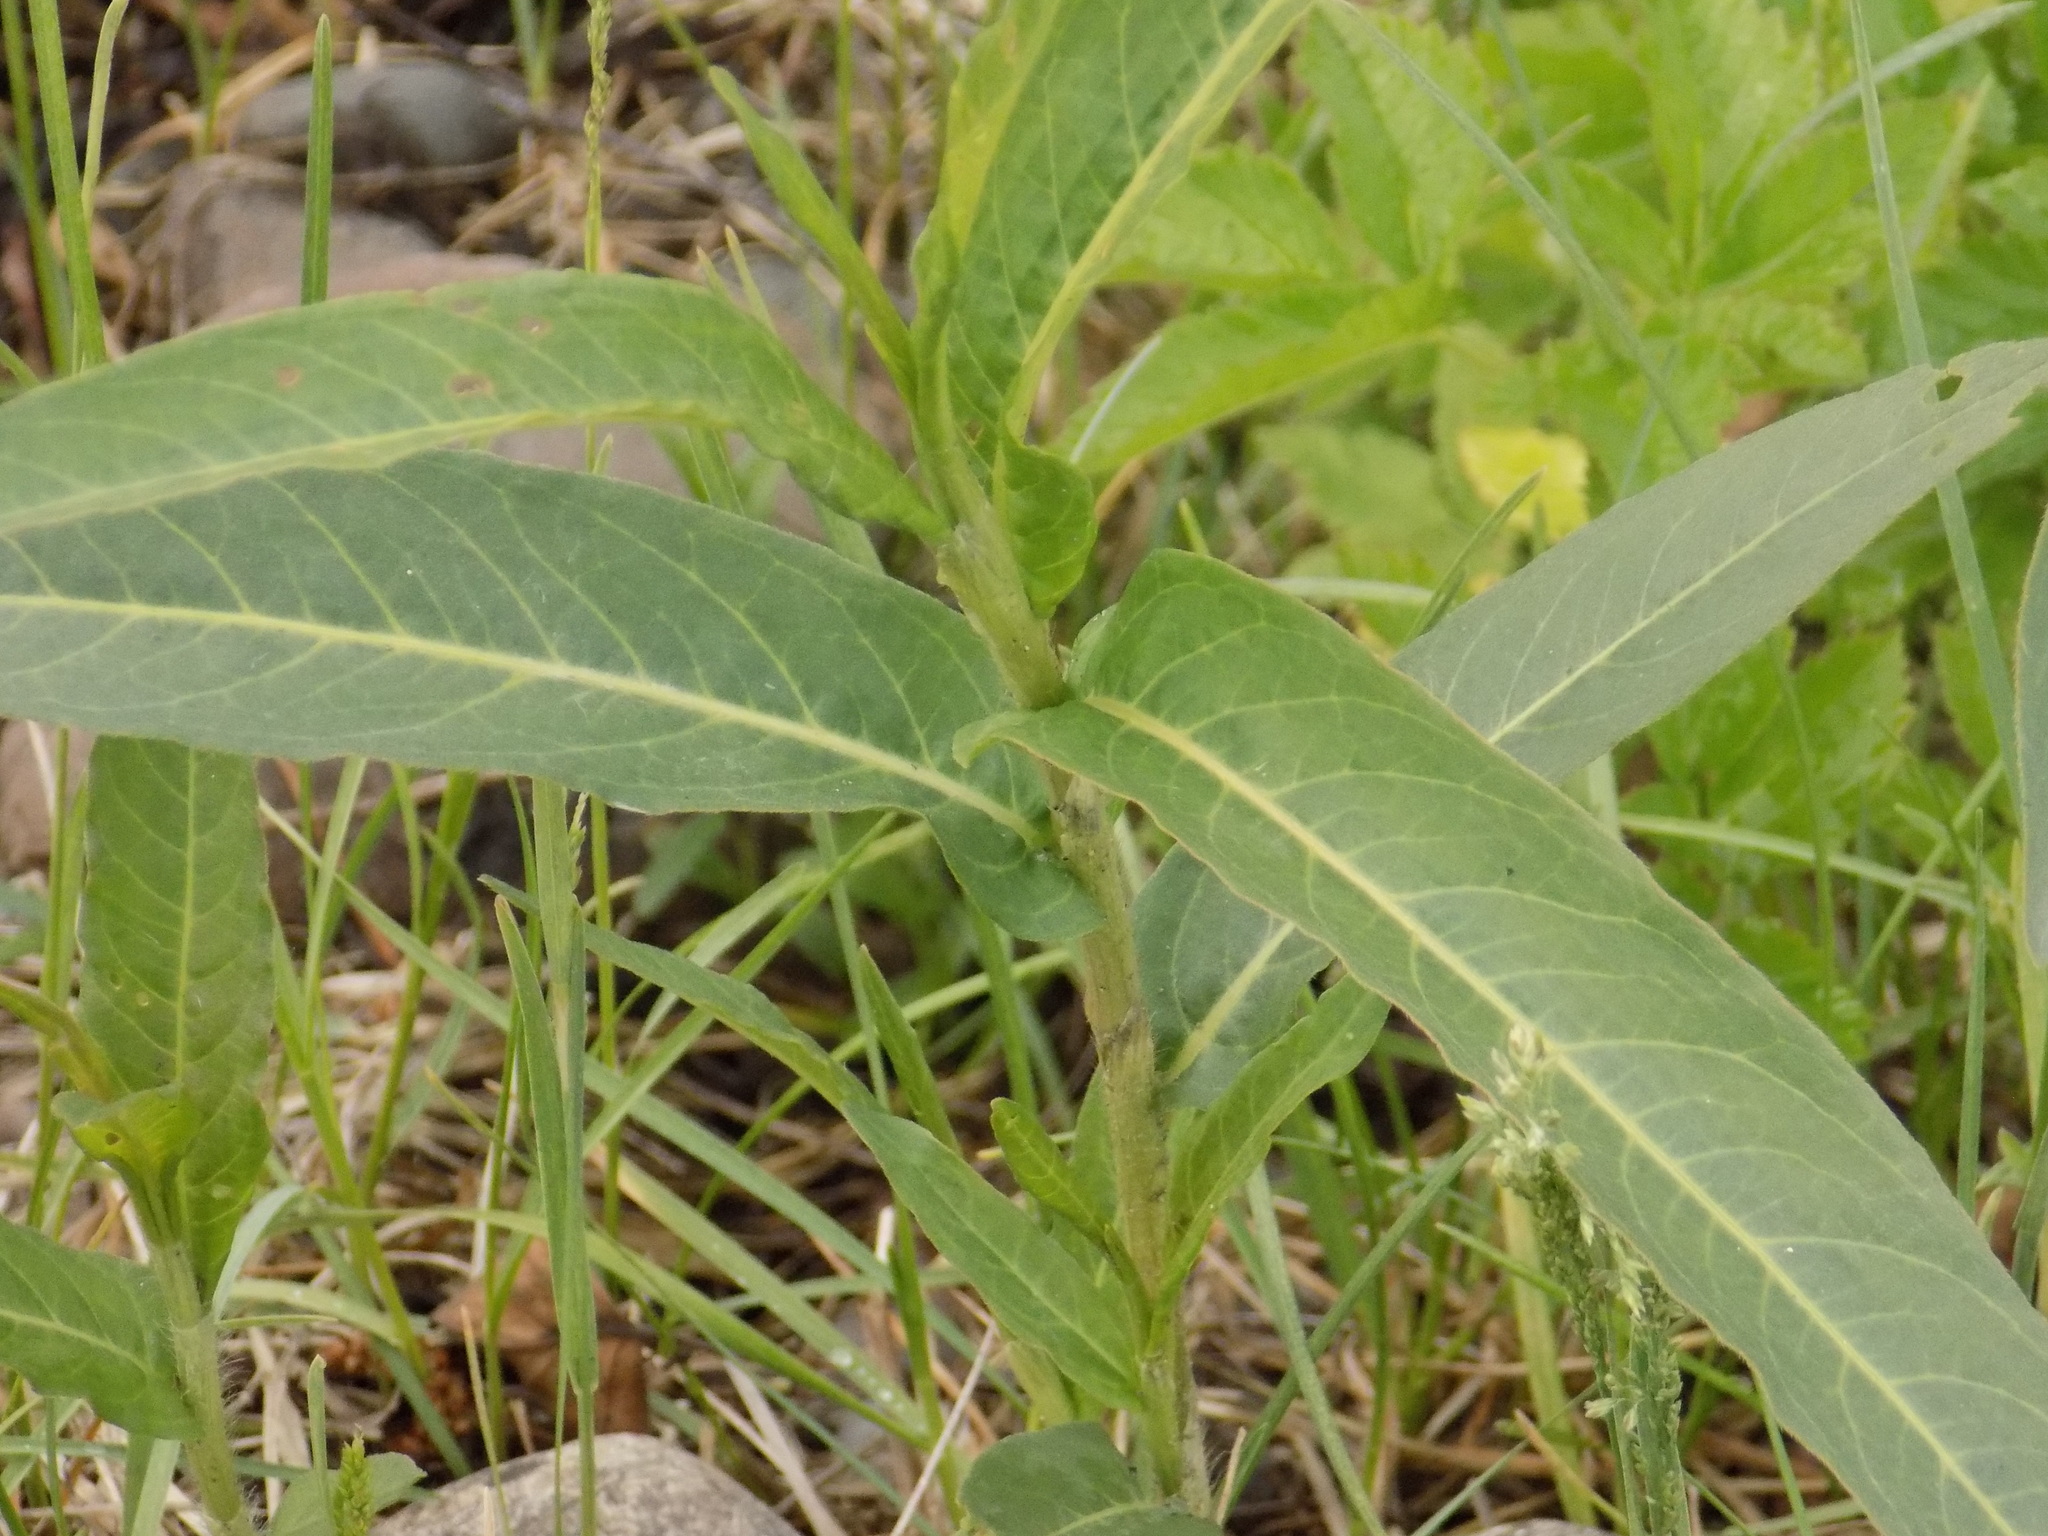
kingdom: Plantae
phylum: Tracheophyta
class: Magnoliopsida
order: Caryophyllales
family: Polygonaceae
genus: Persicaria
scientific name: Persicaria amphibia
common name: Amphibious bistort
